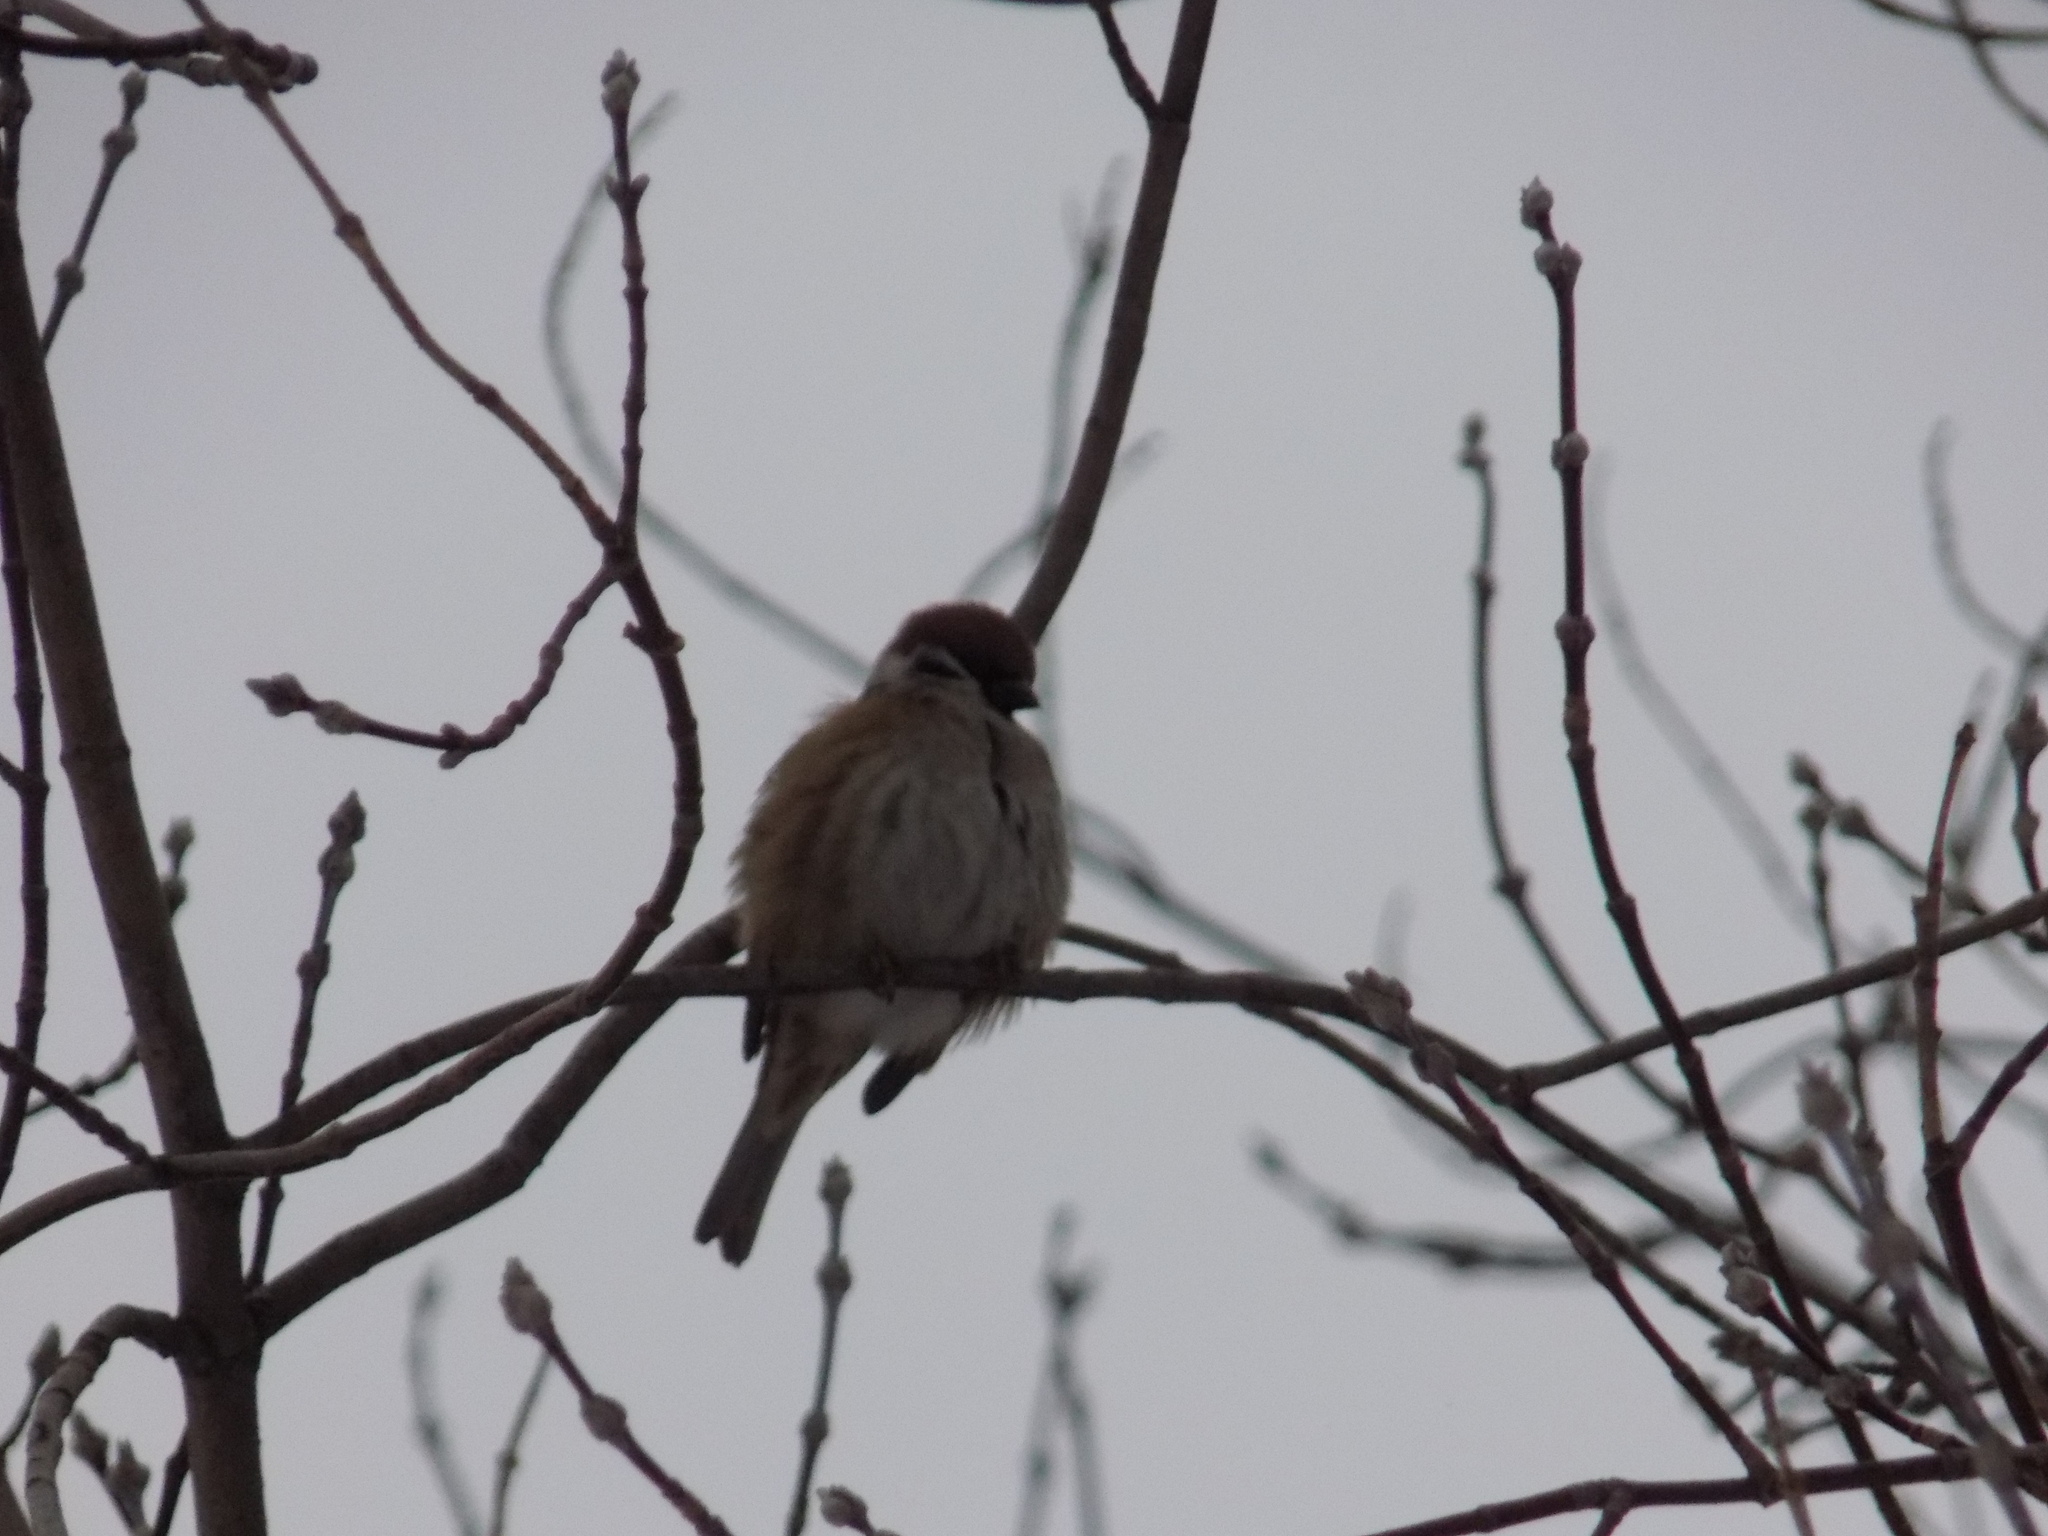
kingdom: Animalia
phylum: Chordata
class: Aves
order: Passeriformes
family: Passeridae
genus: Passer
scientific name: Passer montanus
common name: Eurasian tree sparrow
